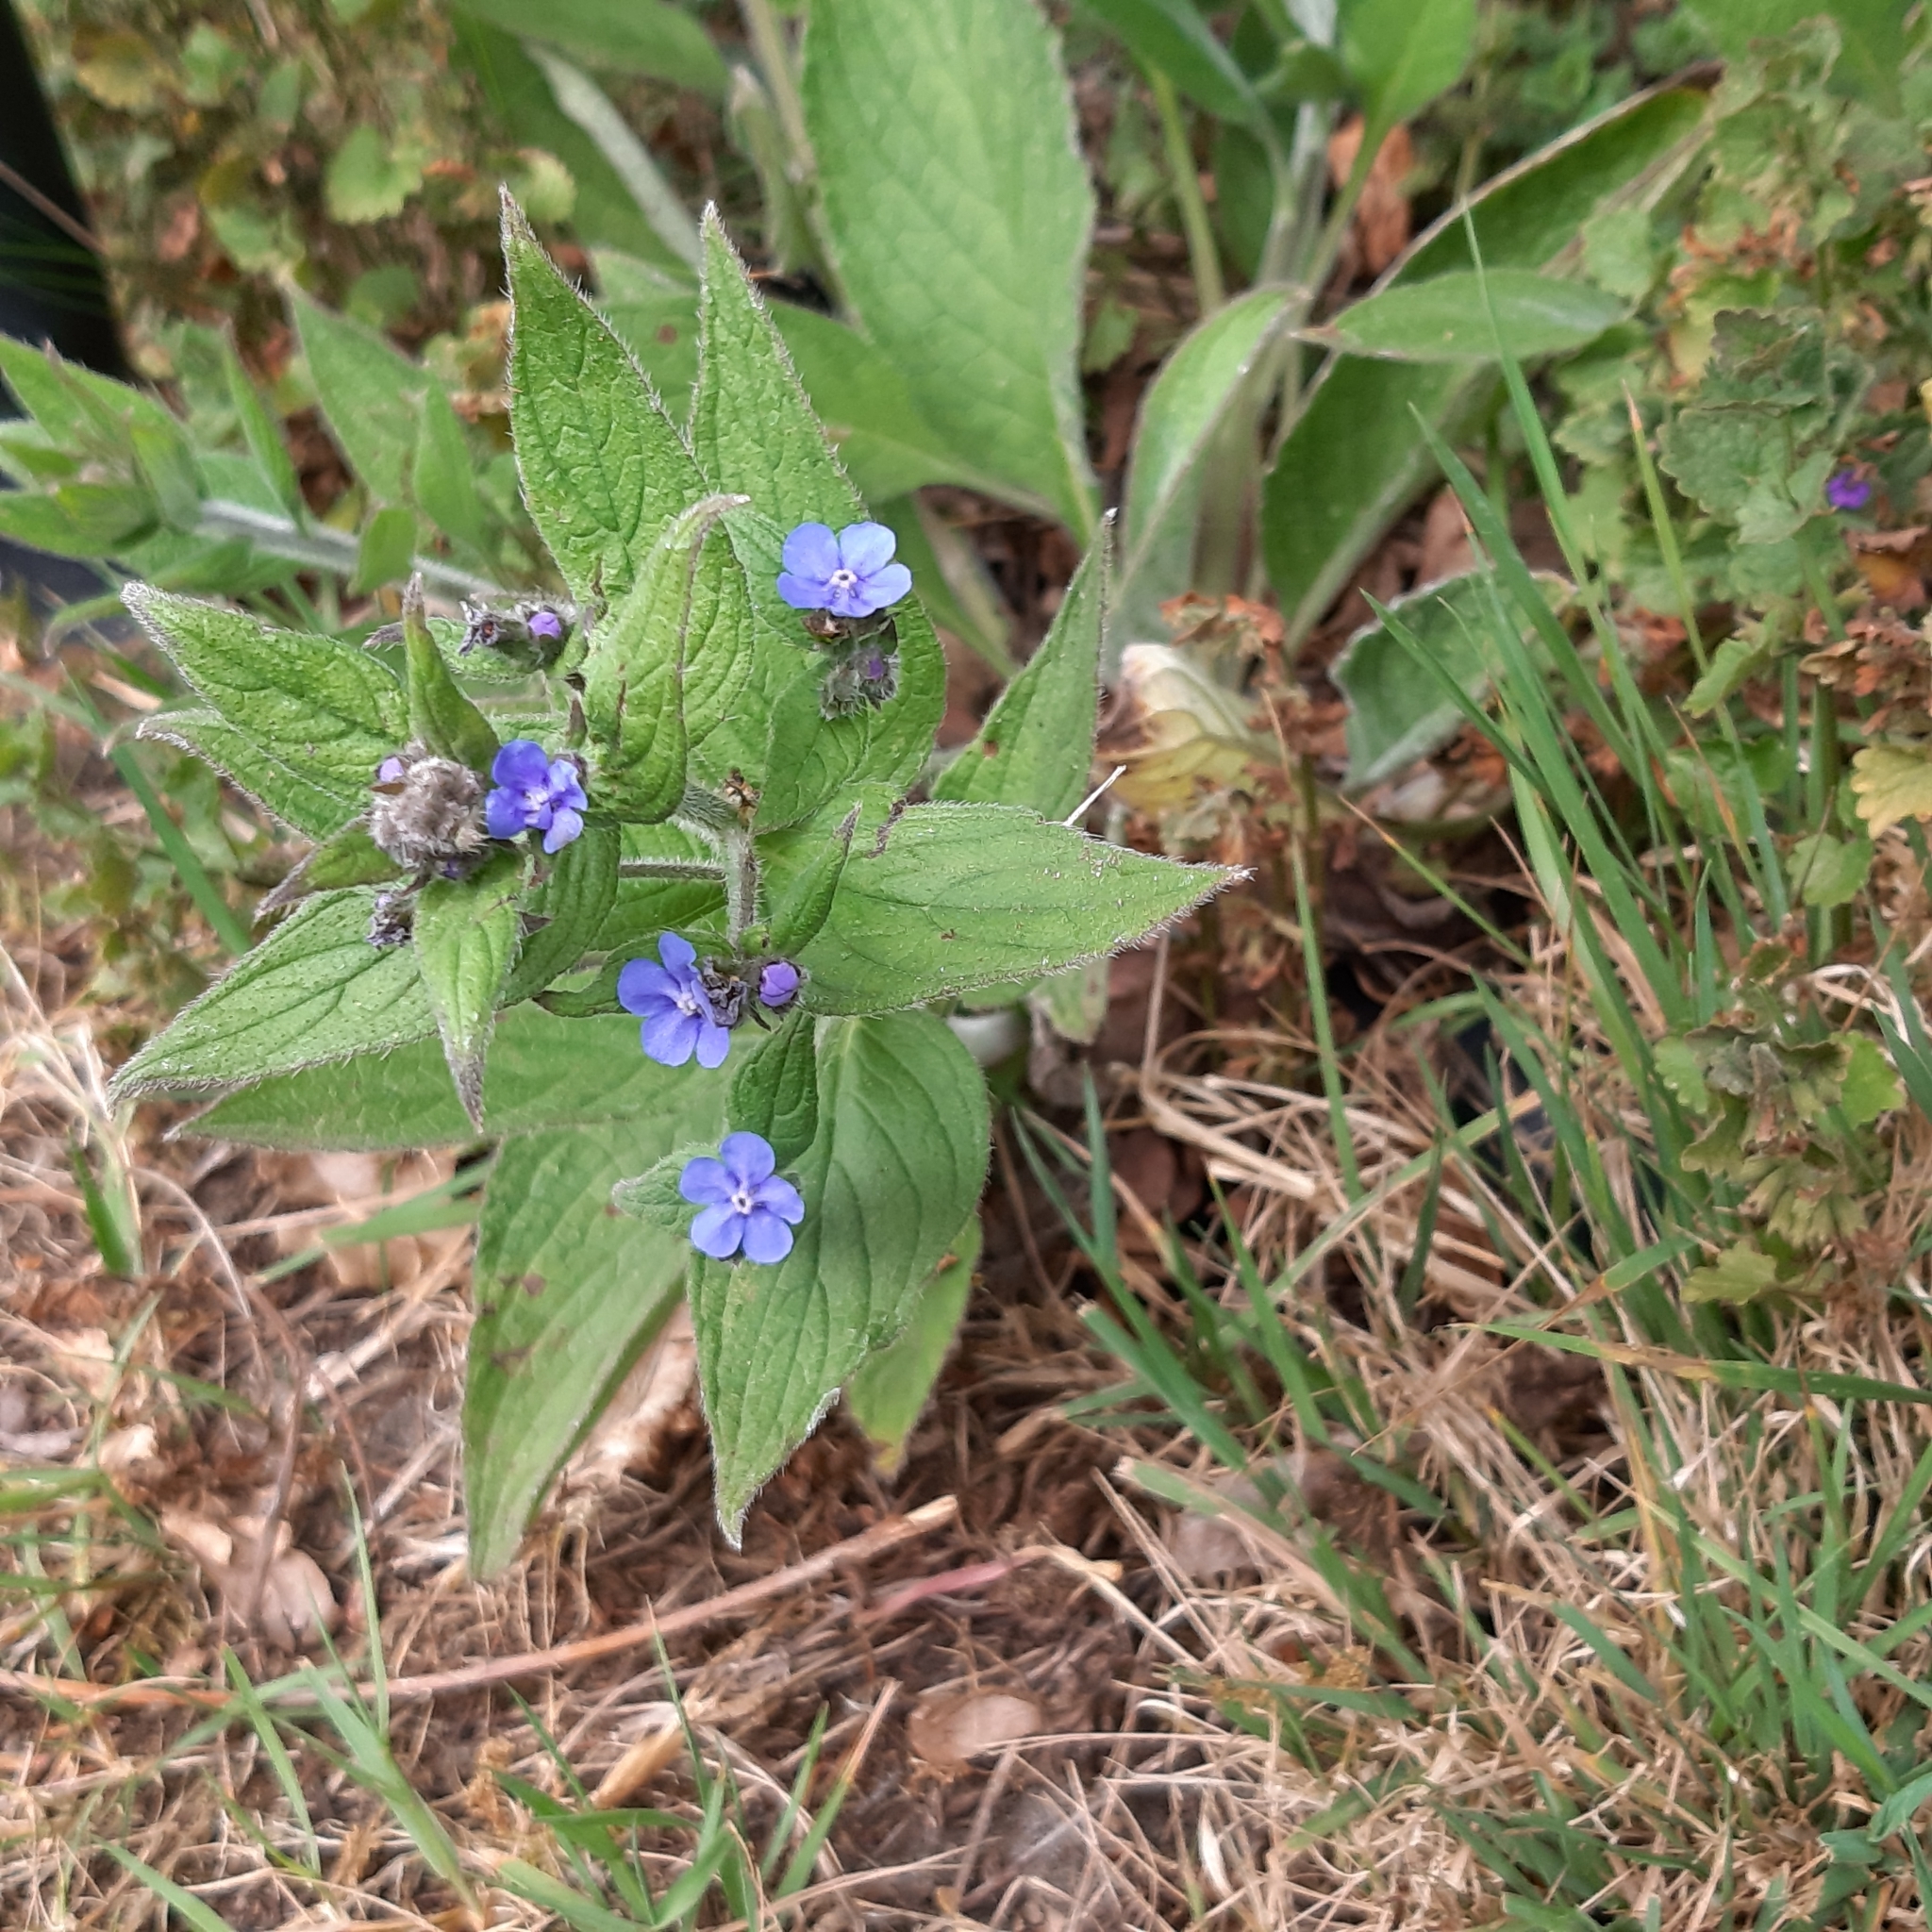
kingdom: Plantae
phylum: Tracheophyta
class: Magnoliopsida
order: Boraginales
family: Boraginaceae
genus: Pentaglottis
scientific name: Pentaglottis sempervirens
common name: Green alkanet
